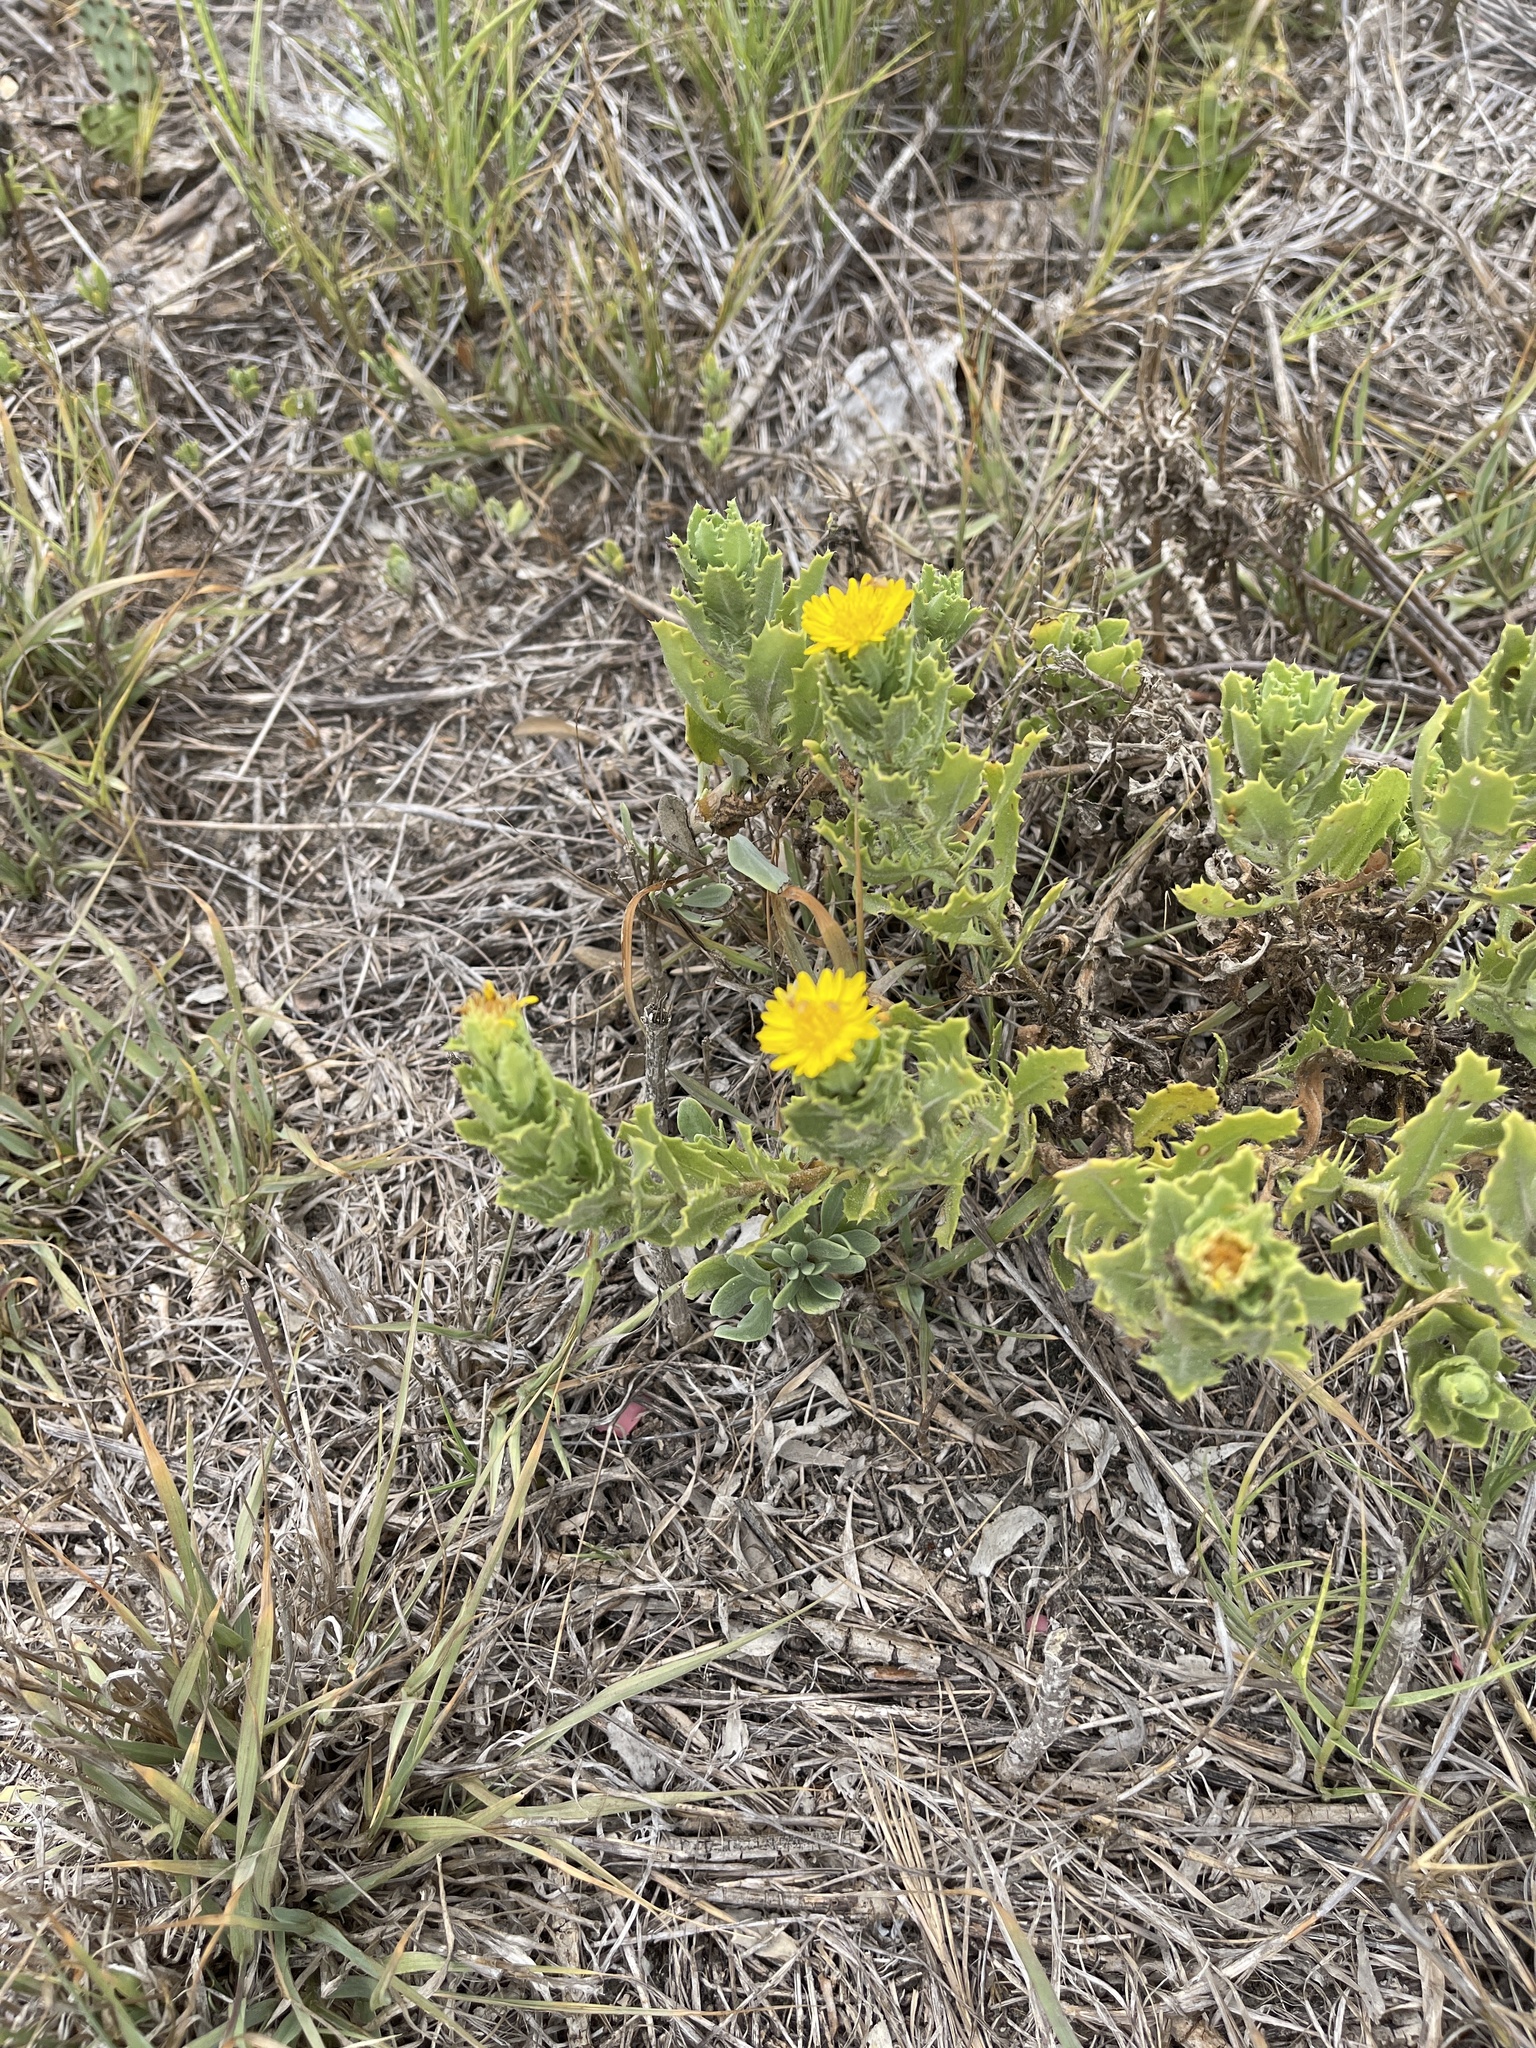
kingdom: Plantae
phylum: Tracheophyta
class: Magnoliopsida
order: Asterales
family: Asteraceae
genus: Rayjacksonia
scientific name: Rayjacksonia phyllocephala
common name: Gulf coast camphor daisy
